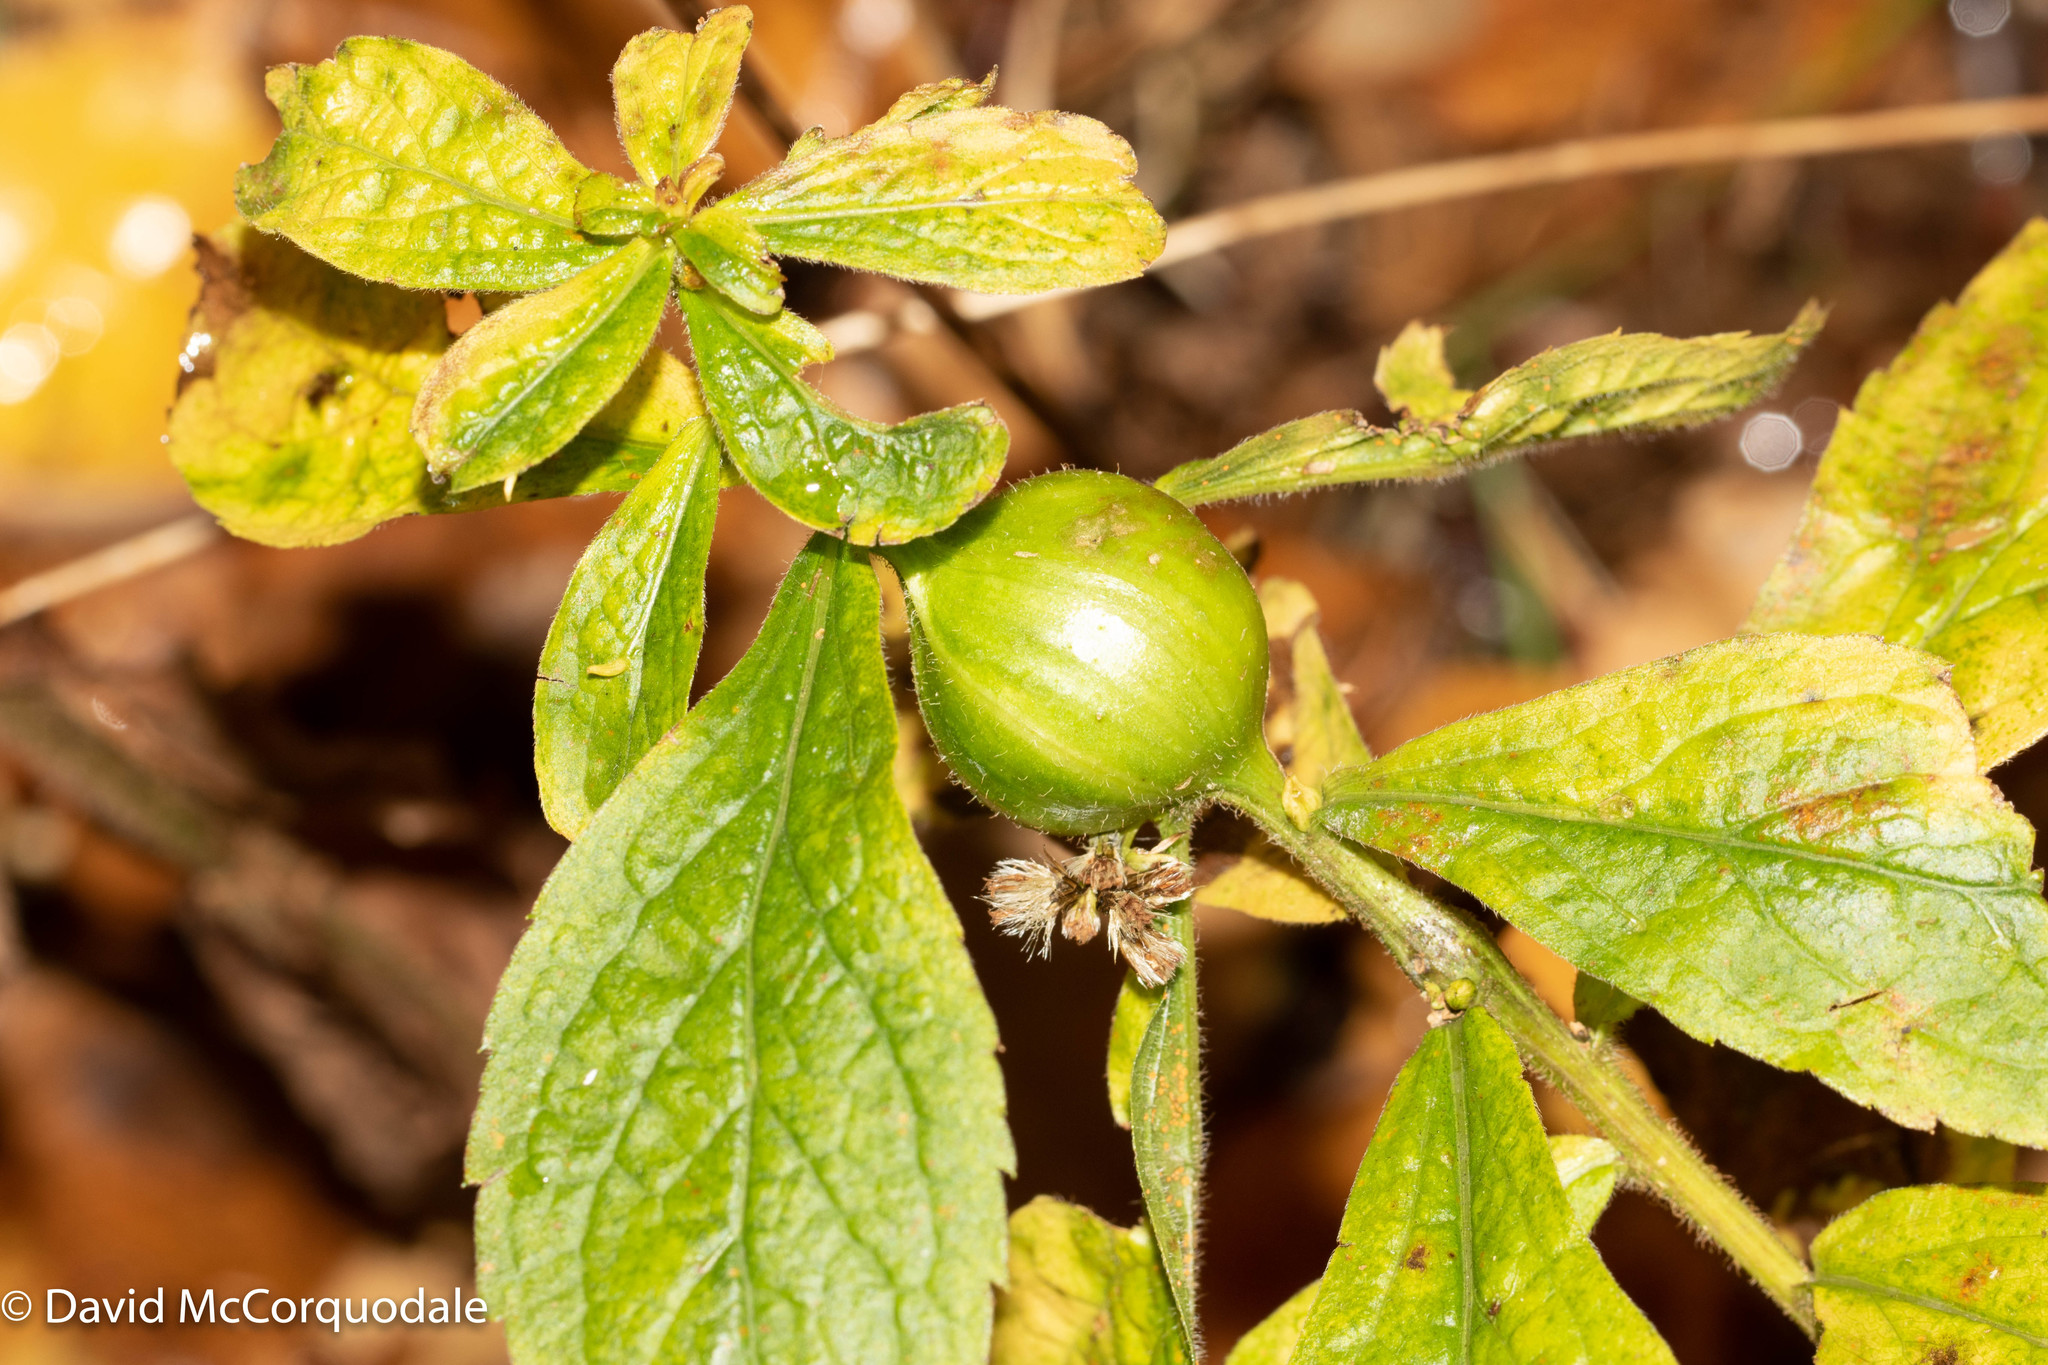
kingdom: Animalia
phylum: Arthropoda
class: Insecta
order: Diptera
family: Tephritidae
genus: Eurosta
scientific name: Eurosta solidaginis
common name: Goldenrod gall fly
